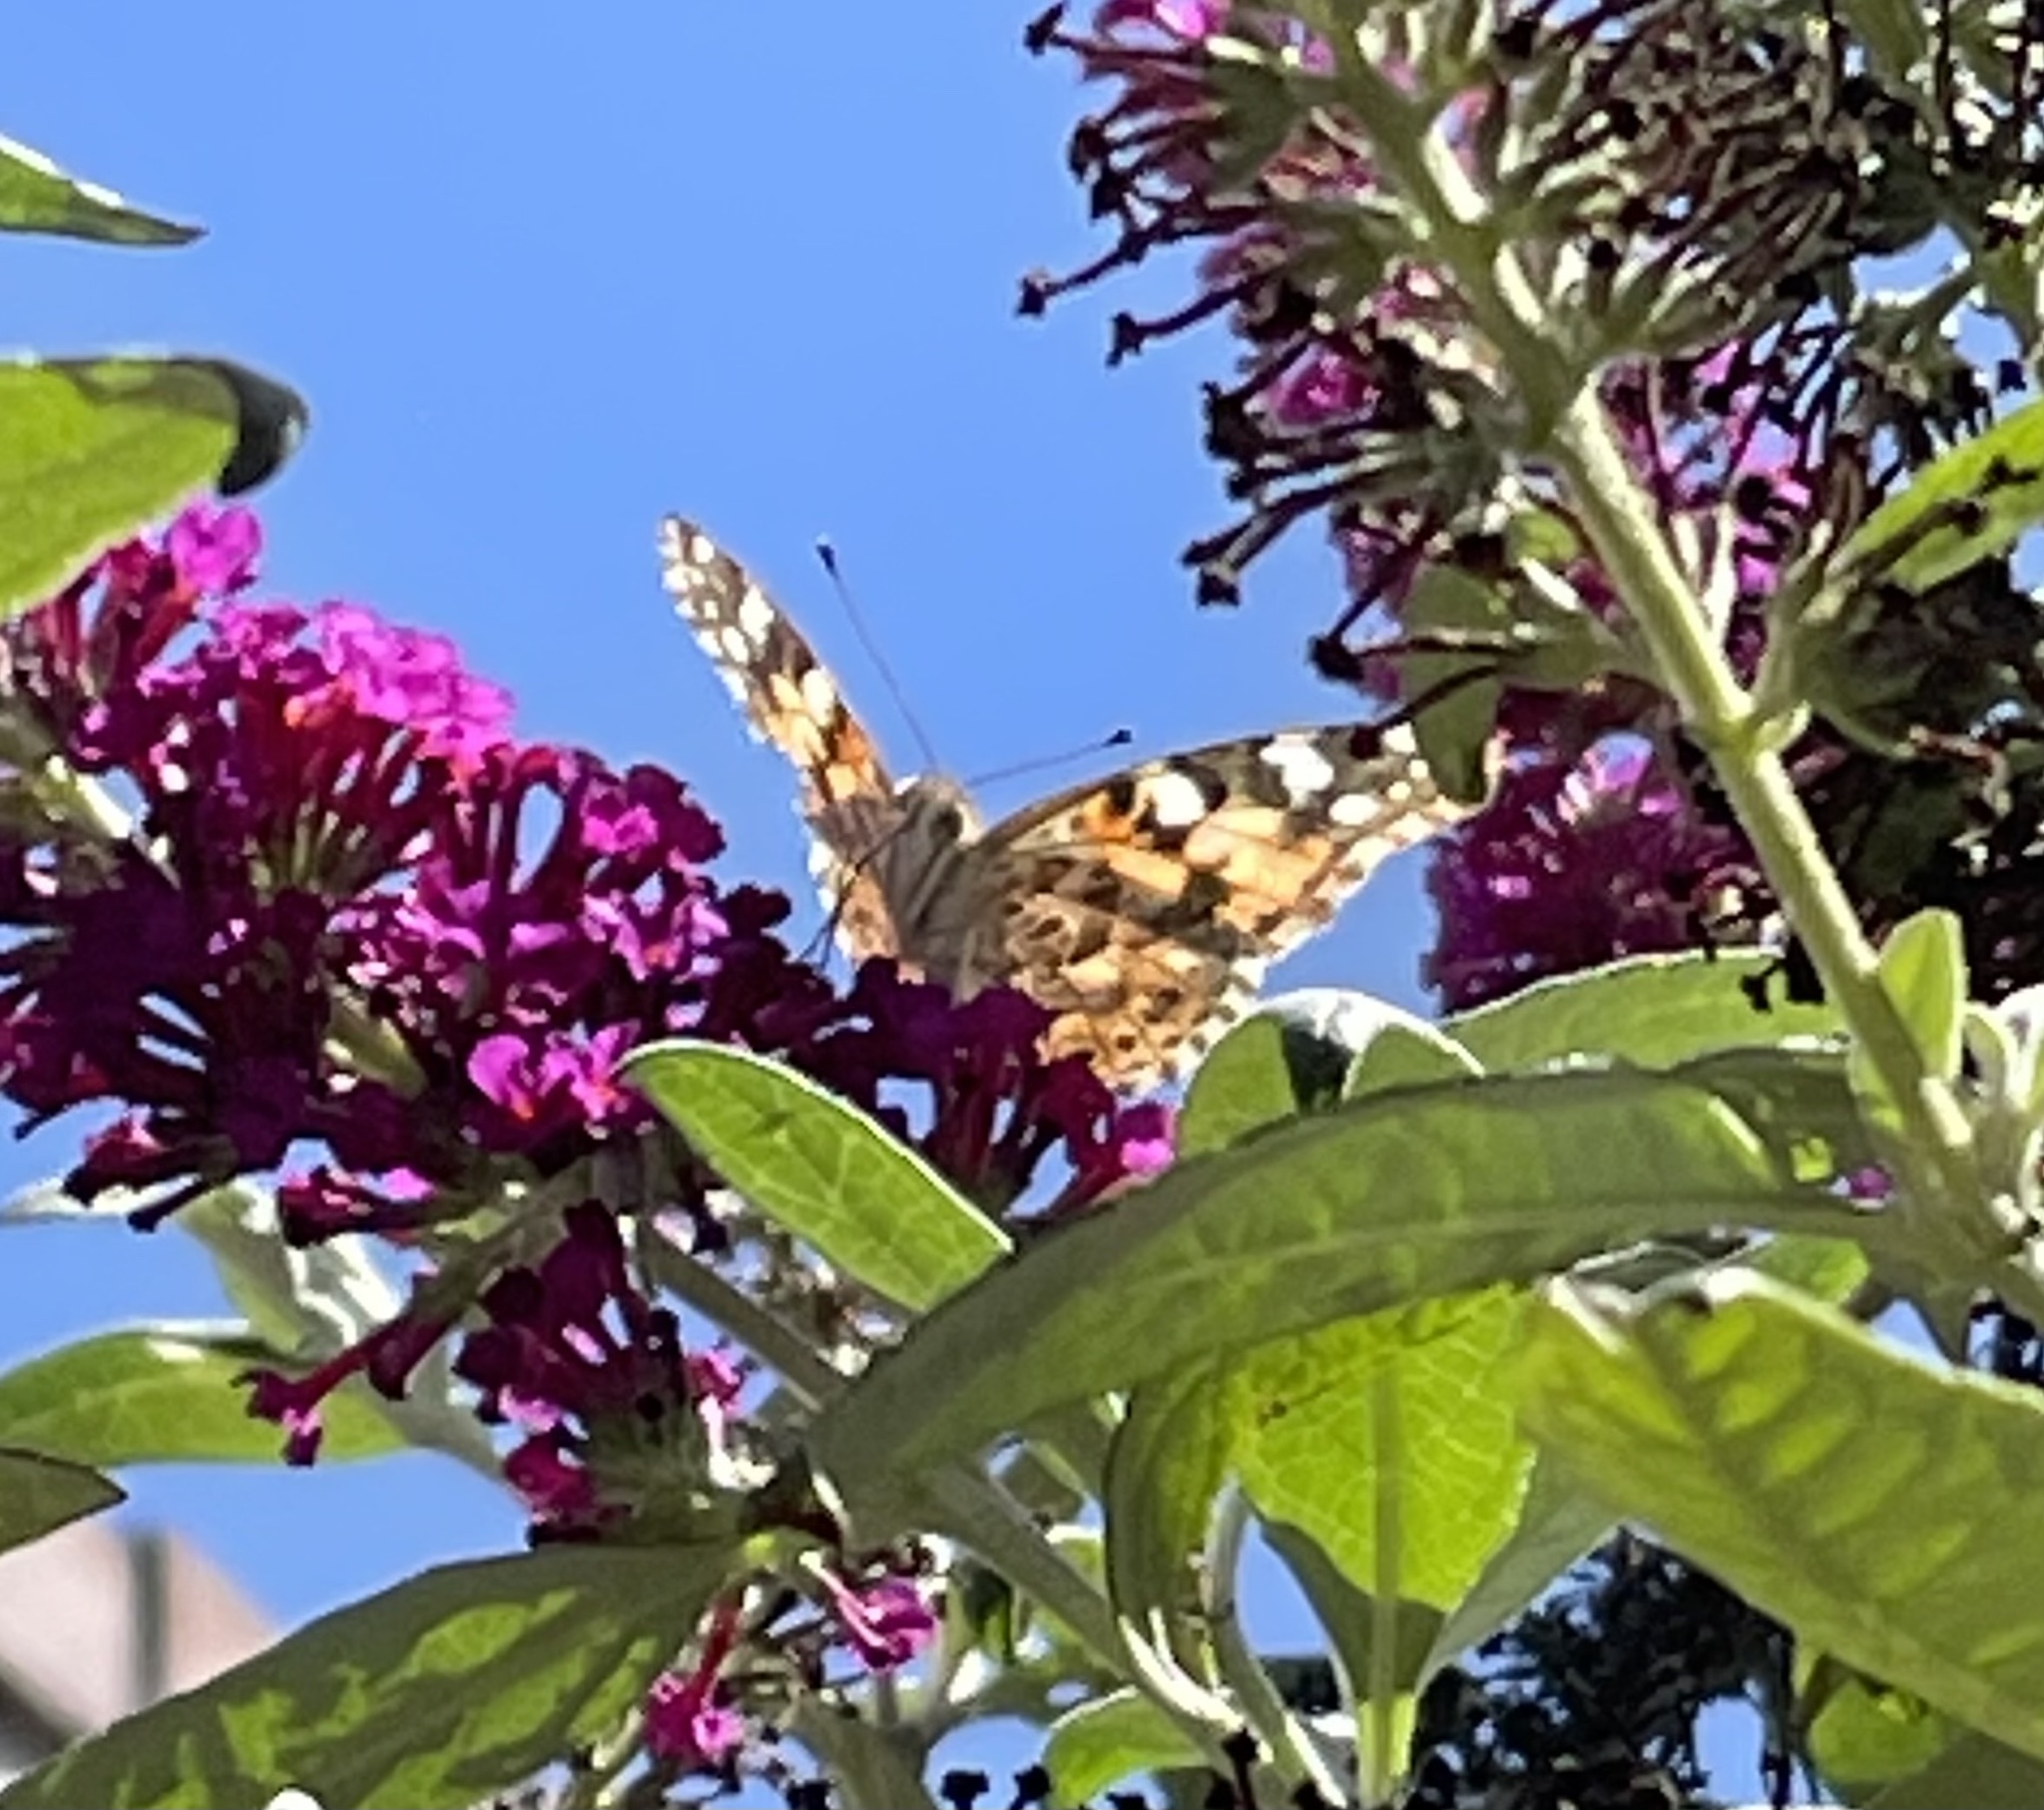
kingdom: Animalia
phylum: Arthropoda
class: Insecta
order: Lepidoptera
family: Nymphalidae
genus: Vanessa
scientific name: Vanessa cardui
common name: Painted lady
